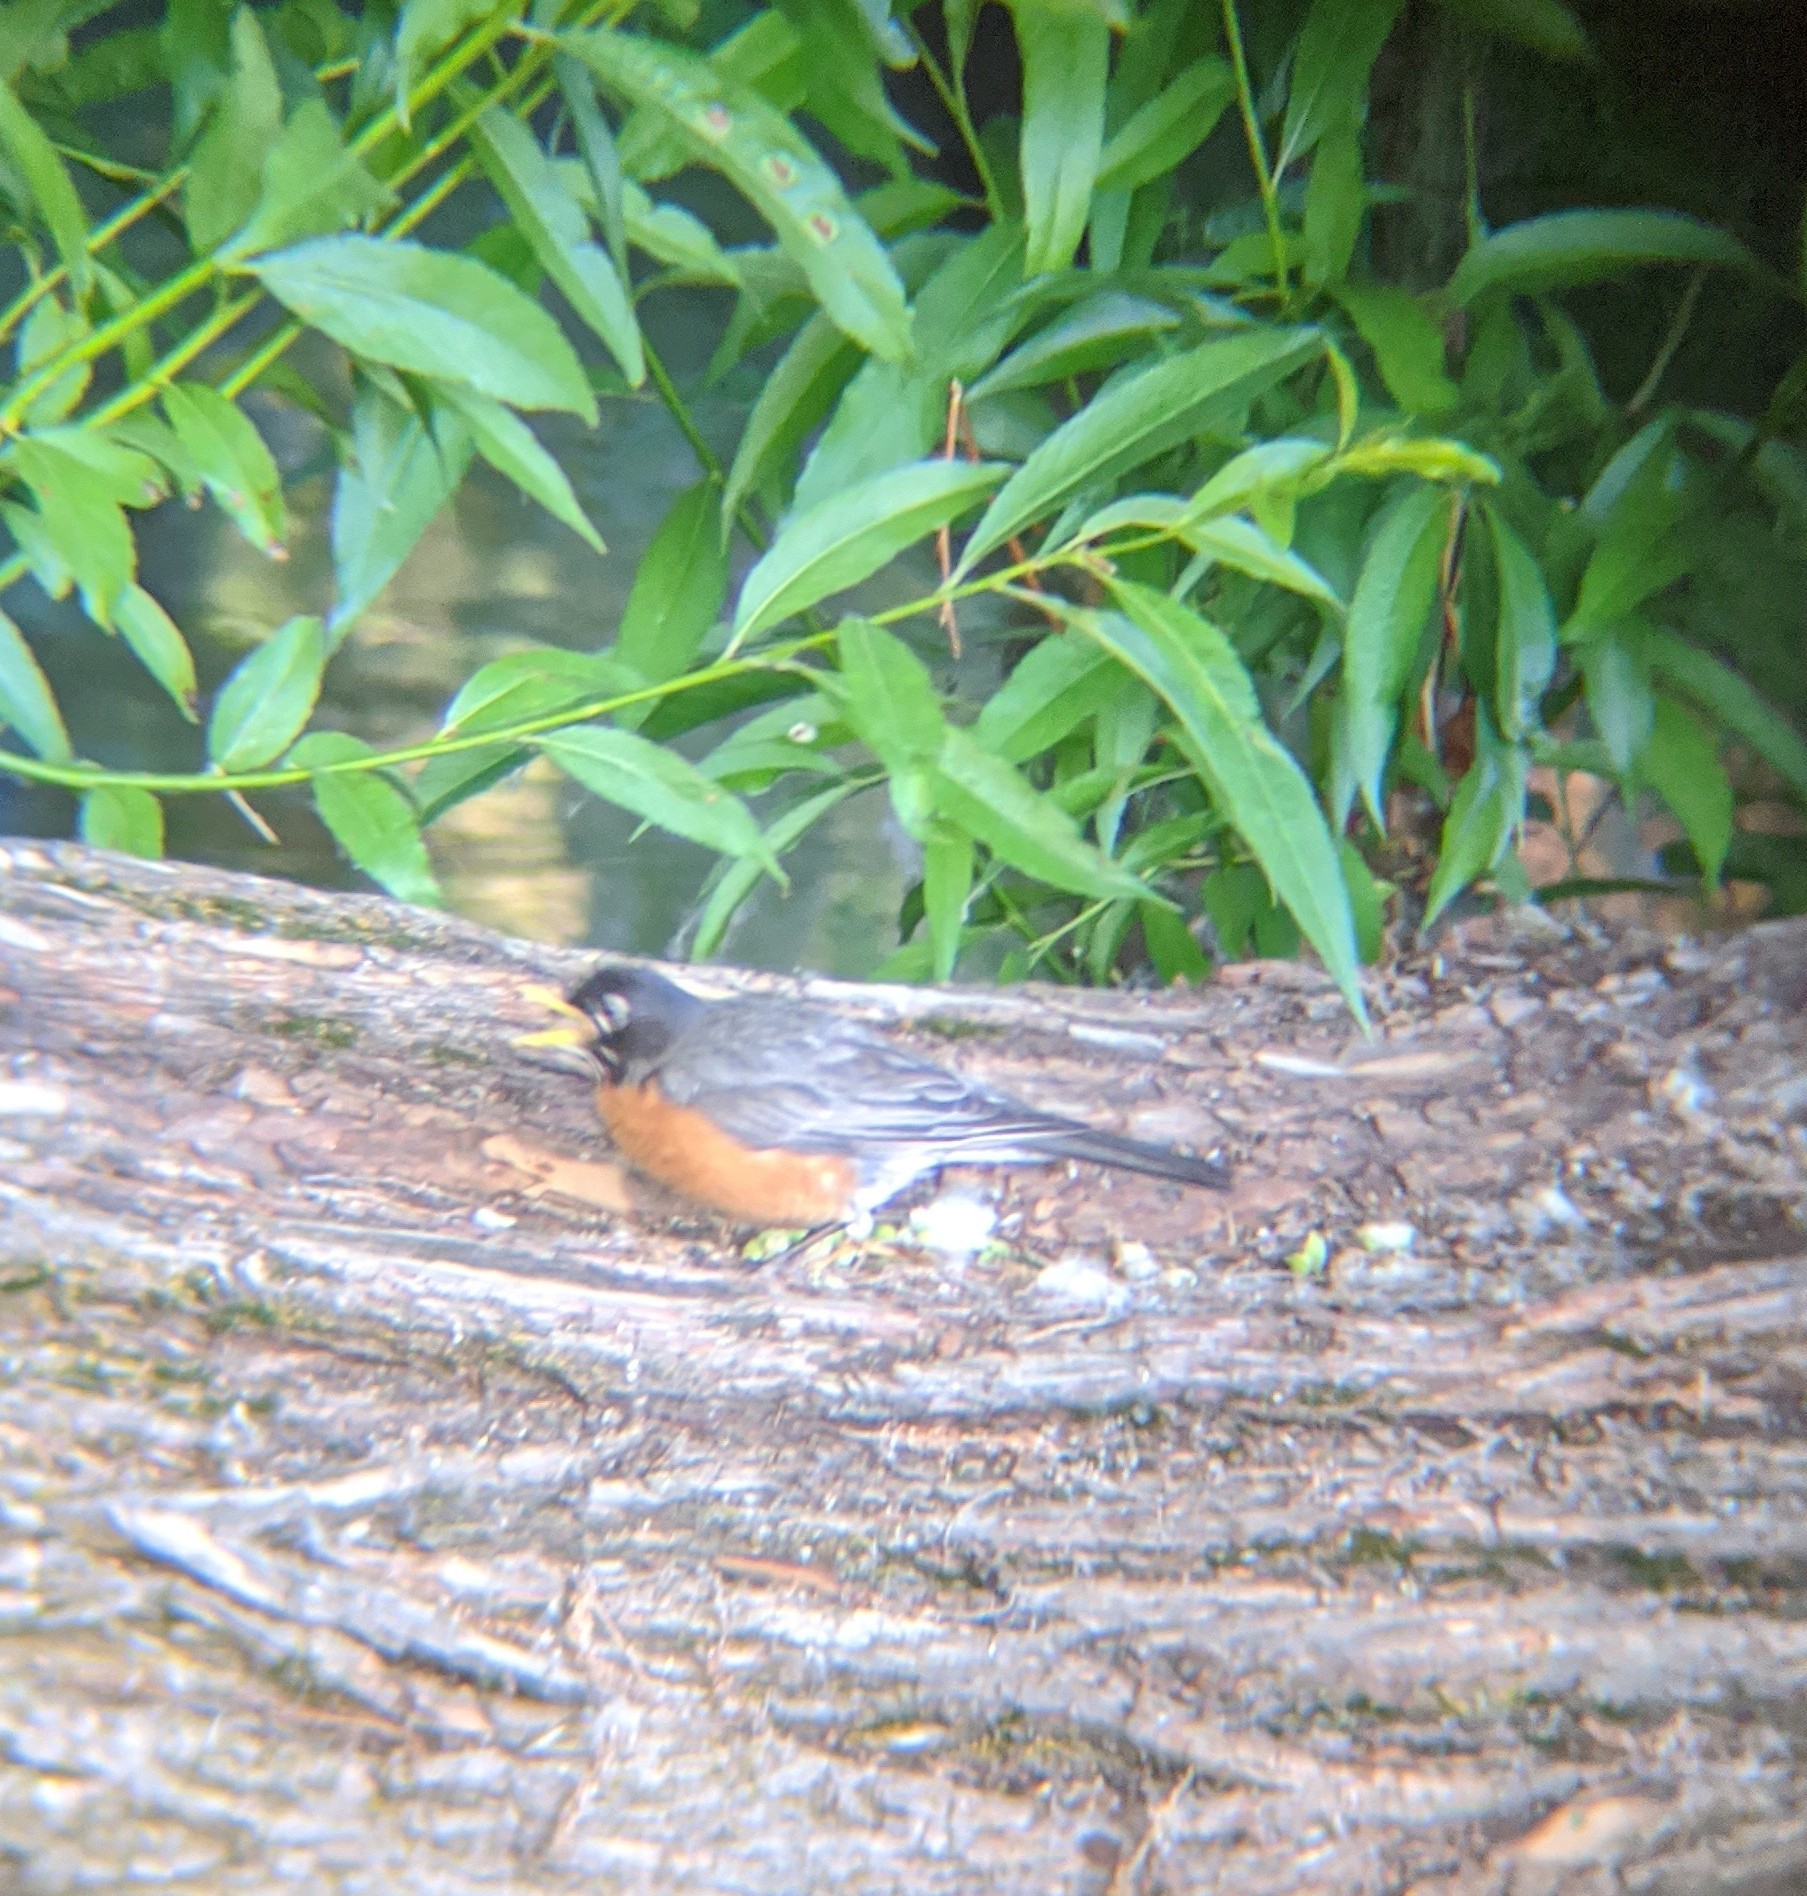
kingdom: Animalia
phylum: Chordata
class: Aves
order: Passeriformes
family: Turdidae
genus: Turdus
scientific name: Turdus migratorius
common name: American robin
